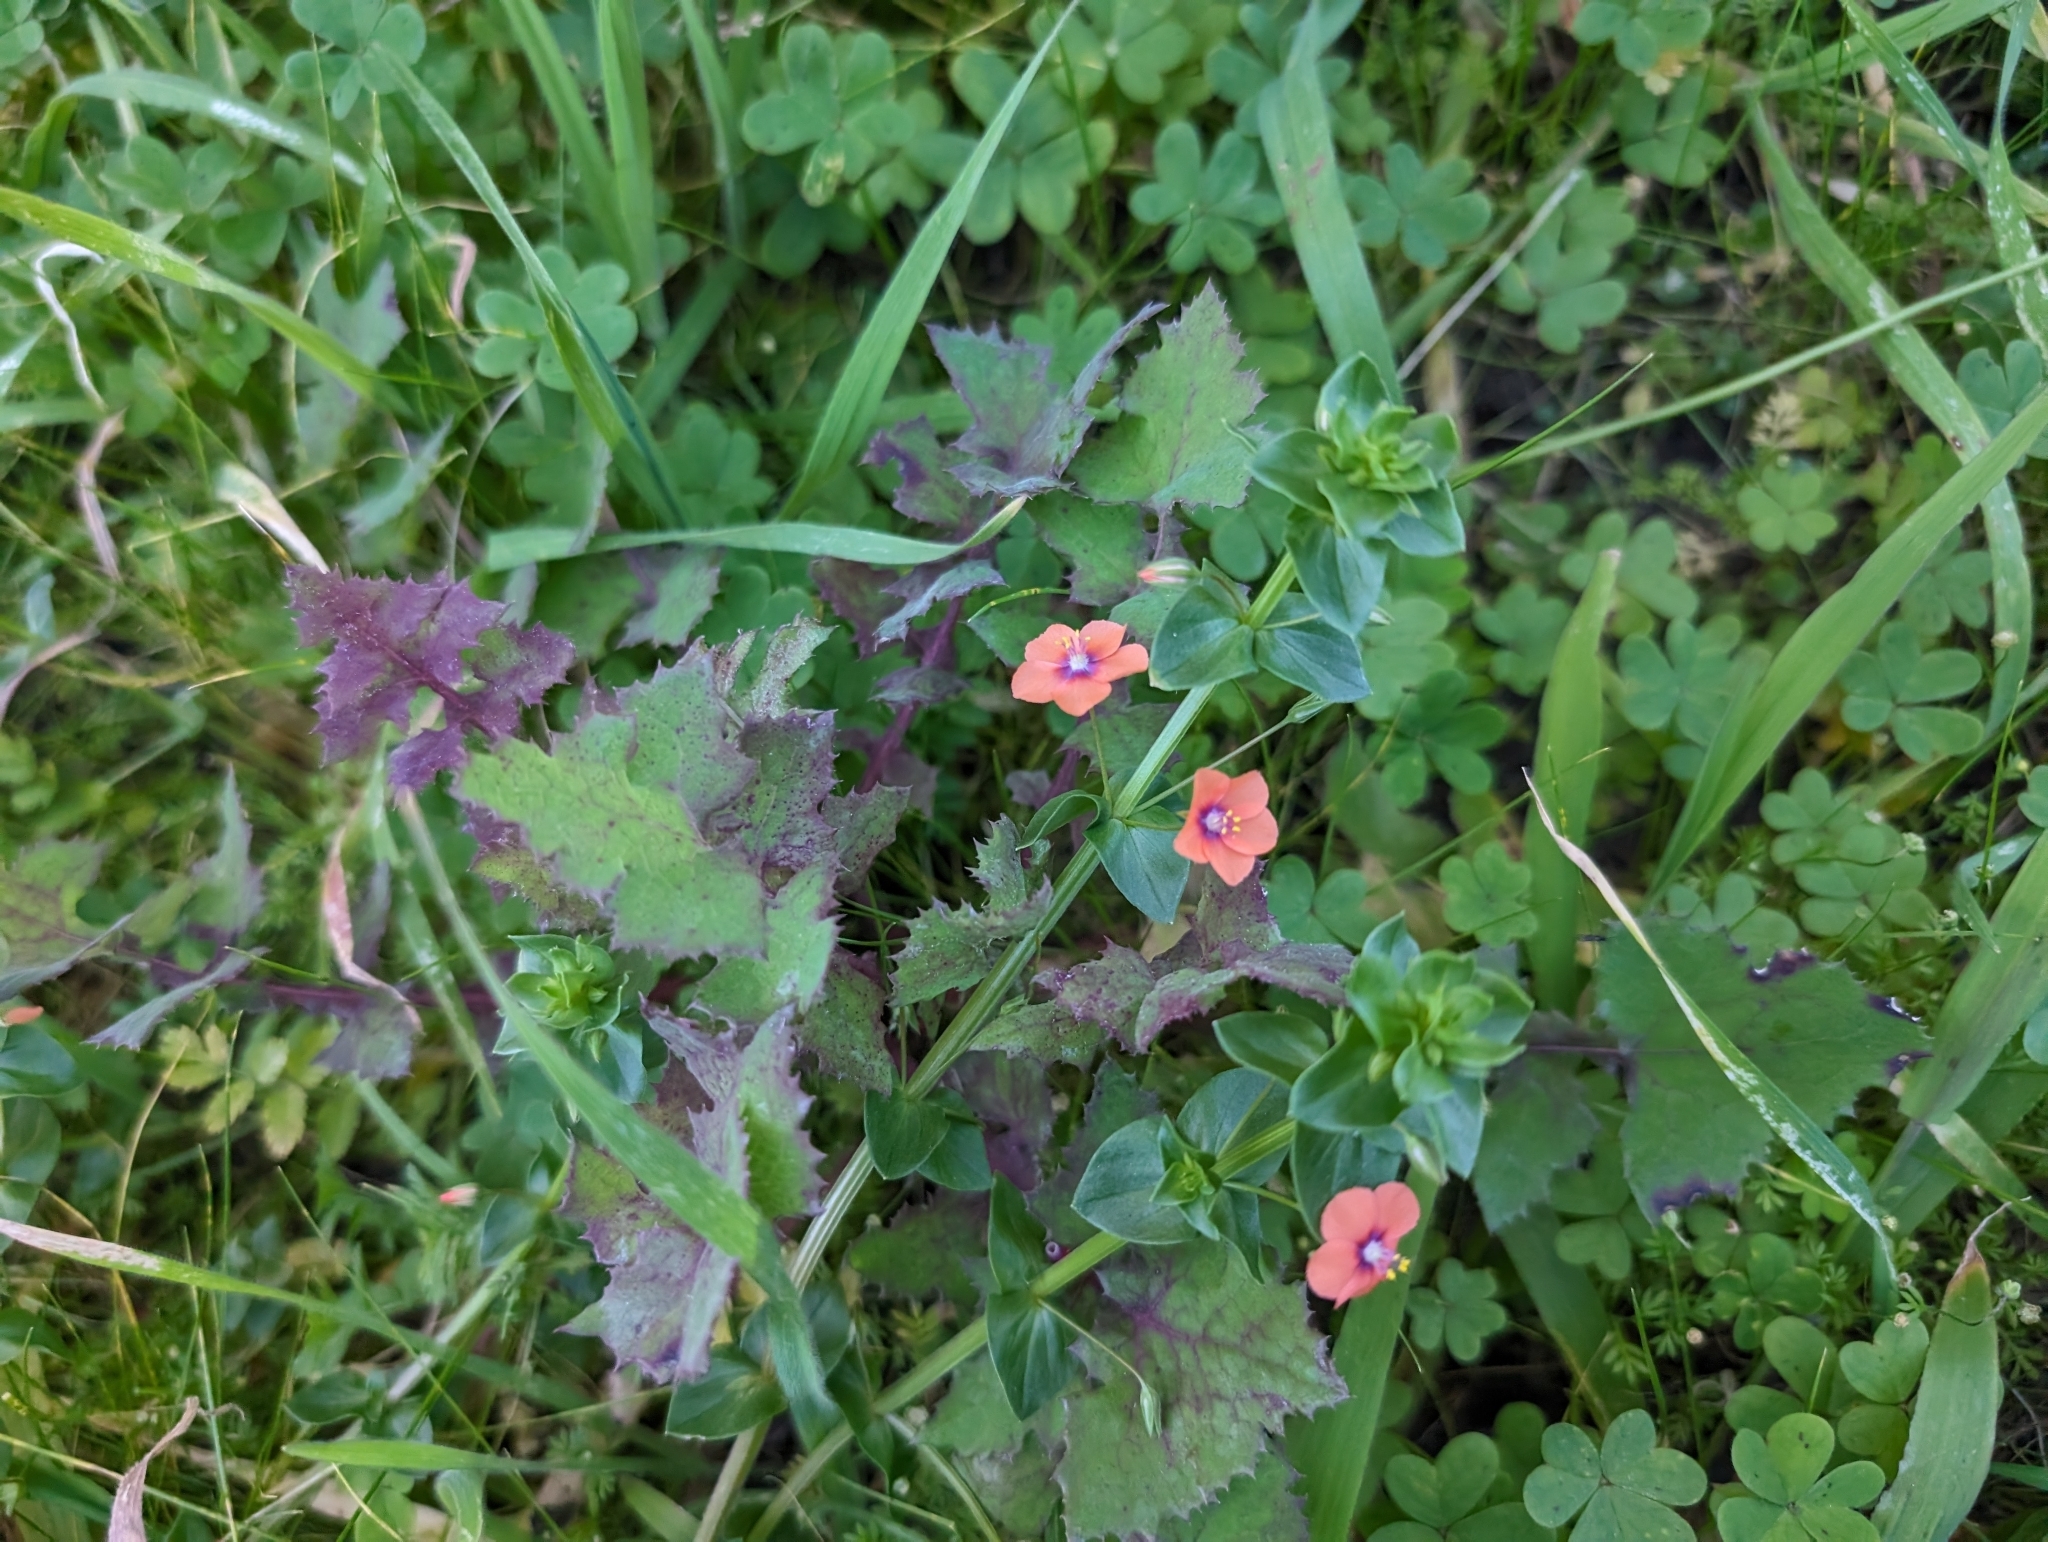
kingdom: Plantae
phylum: Tracheophyta
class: Magnoliopsida
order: Ericales
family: Primulaceae
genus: Lysimachia
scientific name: Lysimachia arvensis
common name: Scarlet pimpernel
